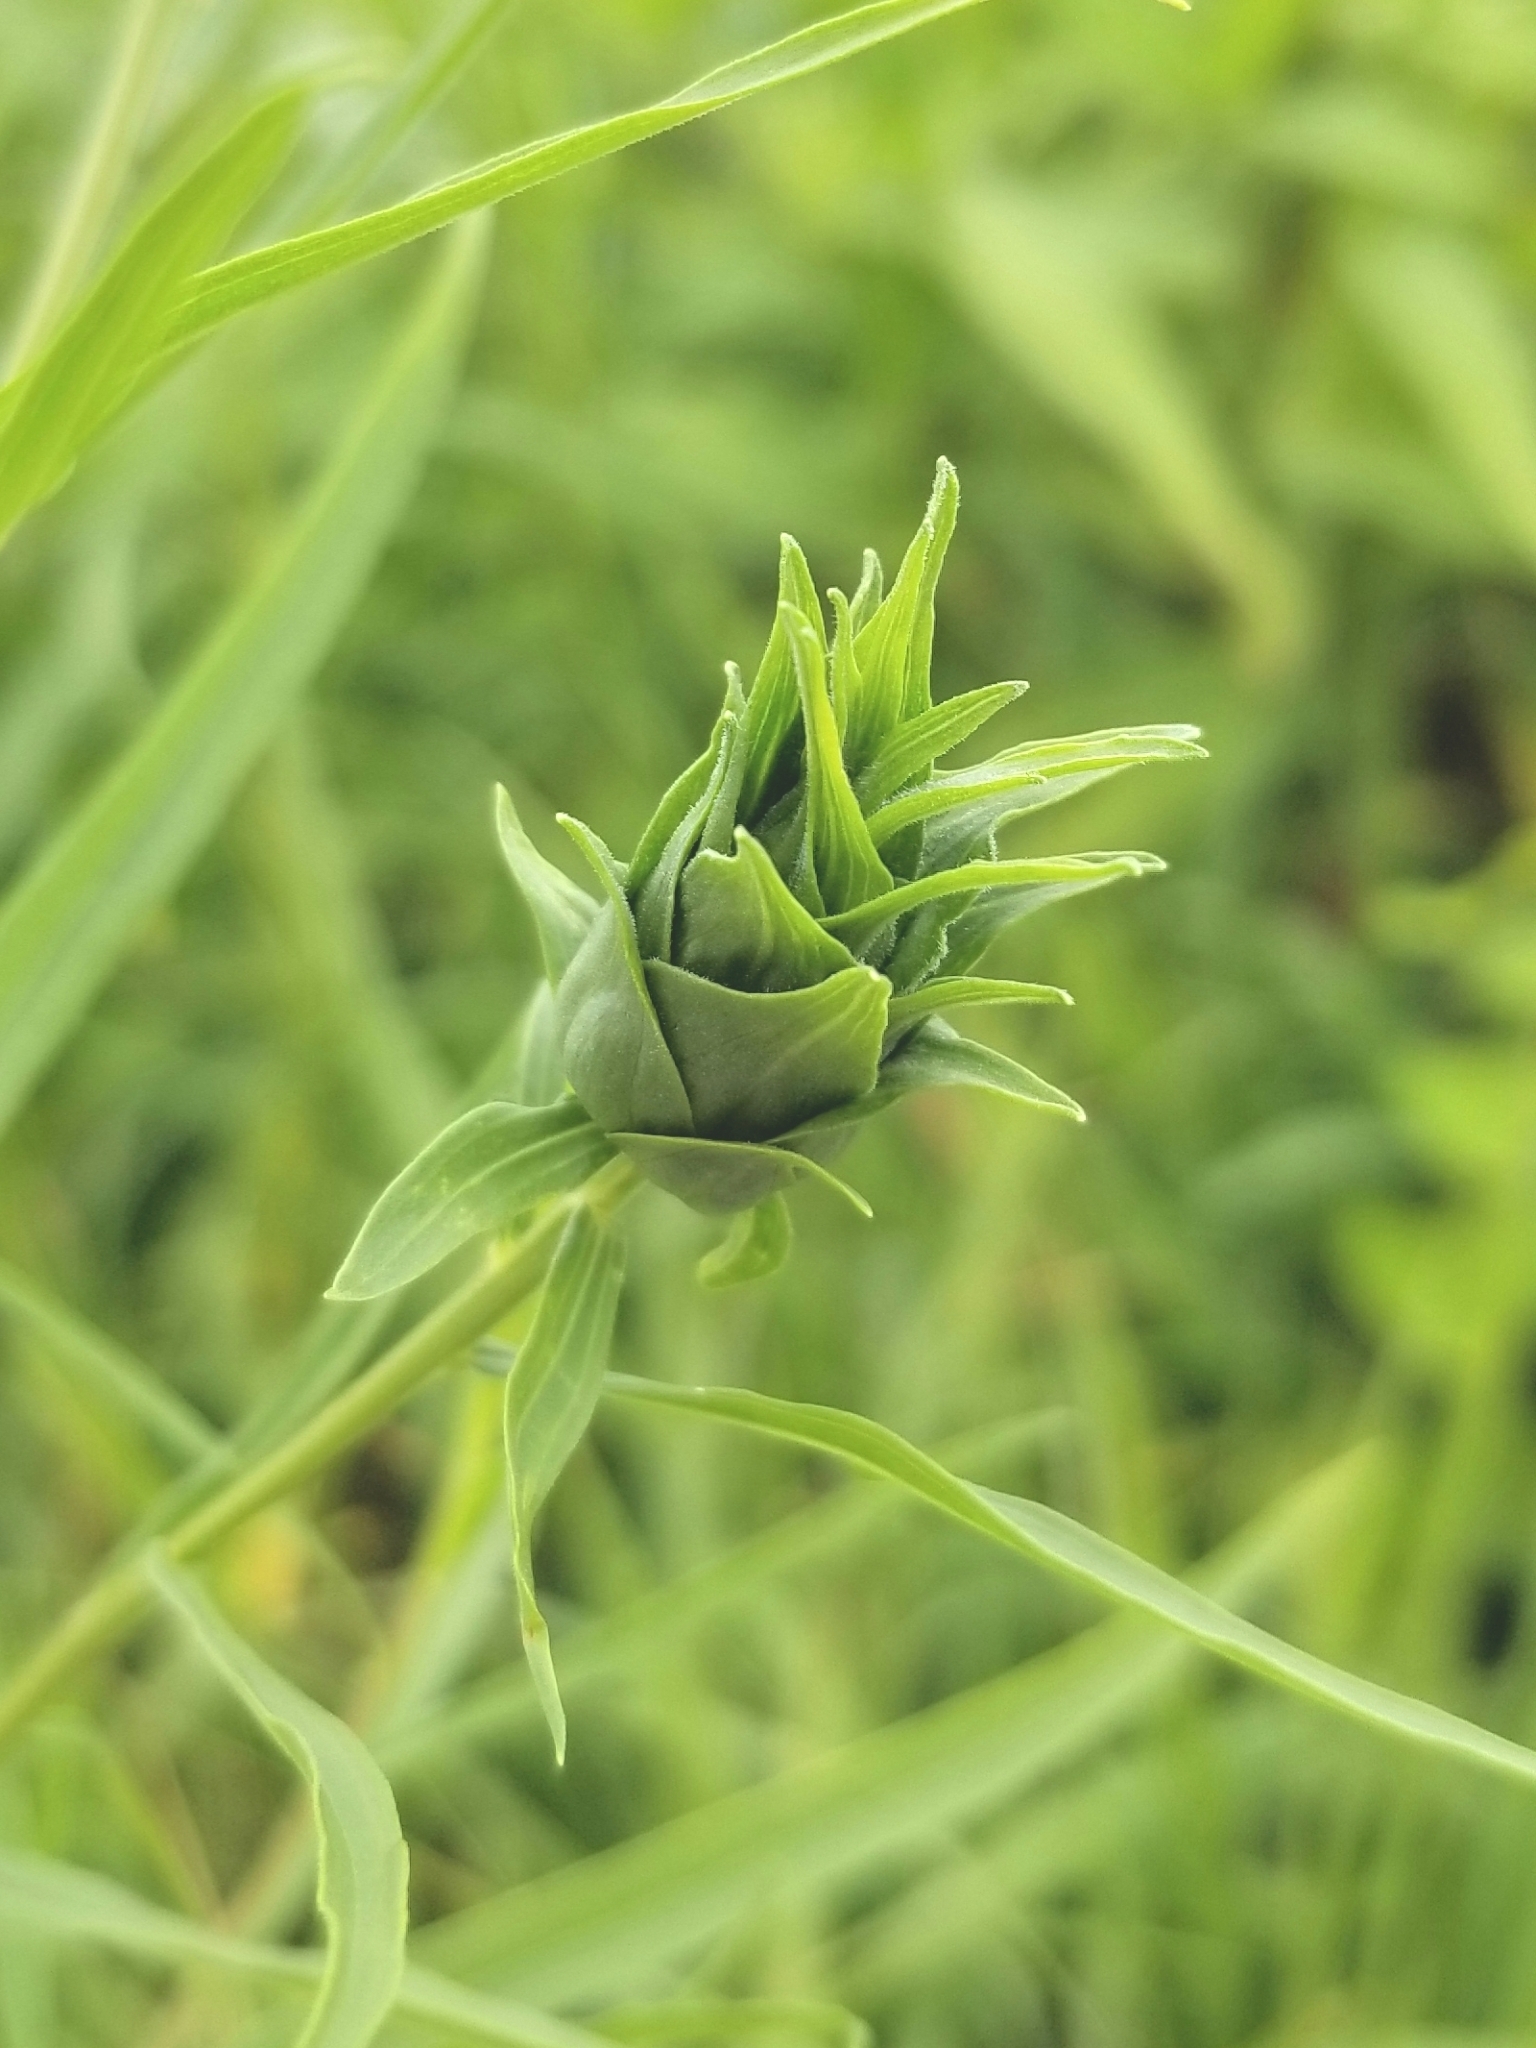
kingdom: Animalia
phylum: Arthropoda
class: Insecta
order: Diptera
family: Cecidomyiidae
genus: Asphondylia
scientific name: Asphondylia pseudorosa
